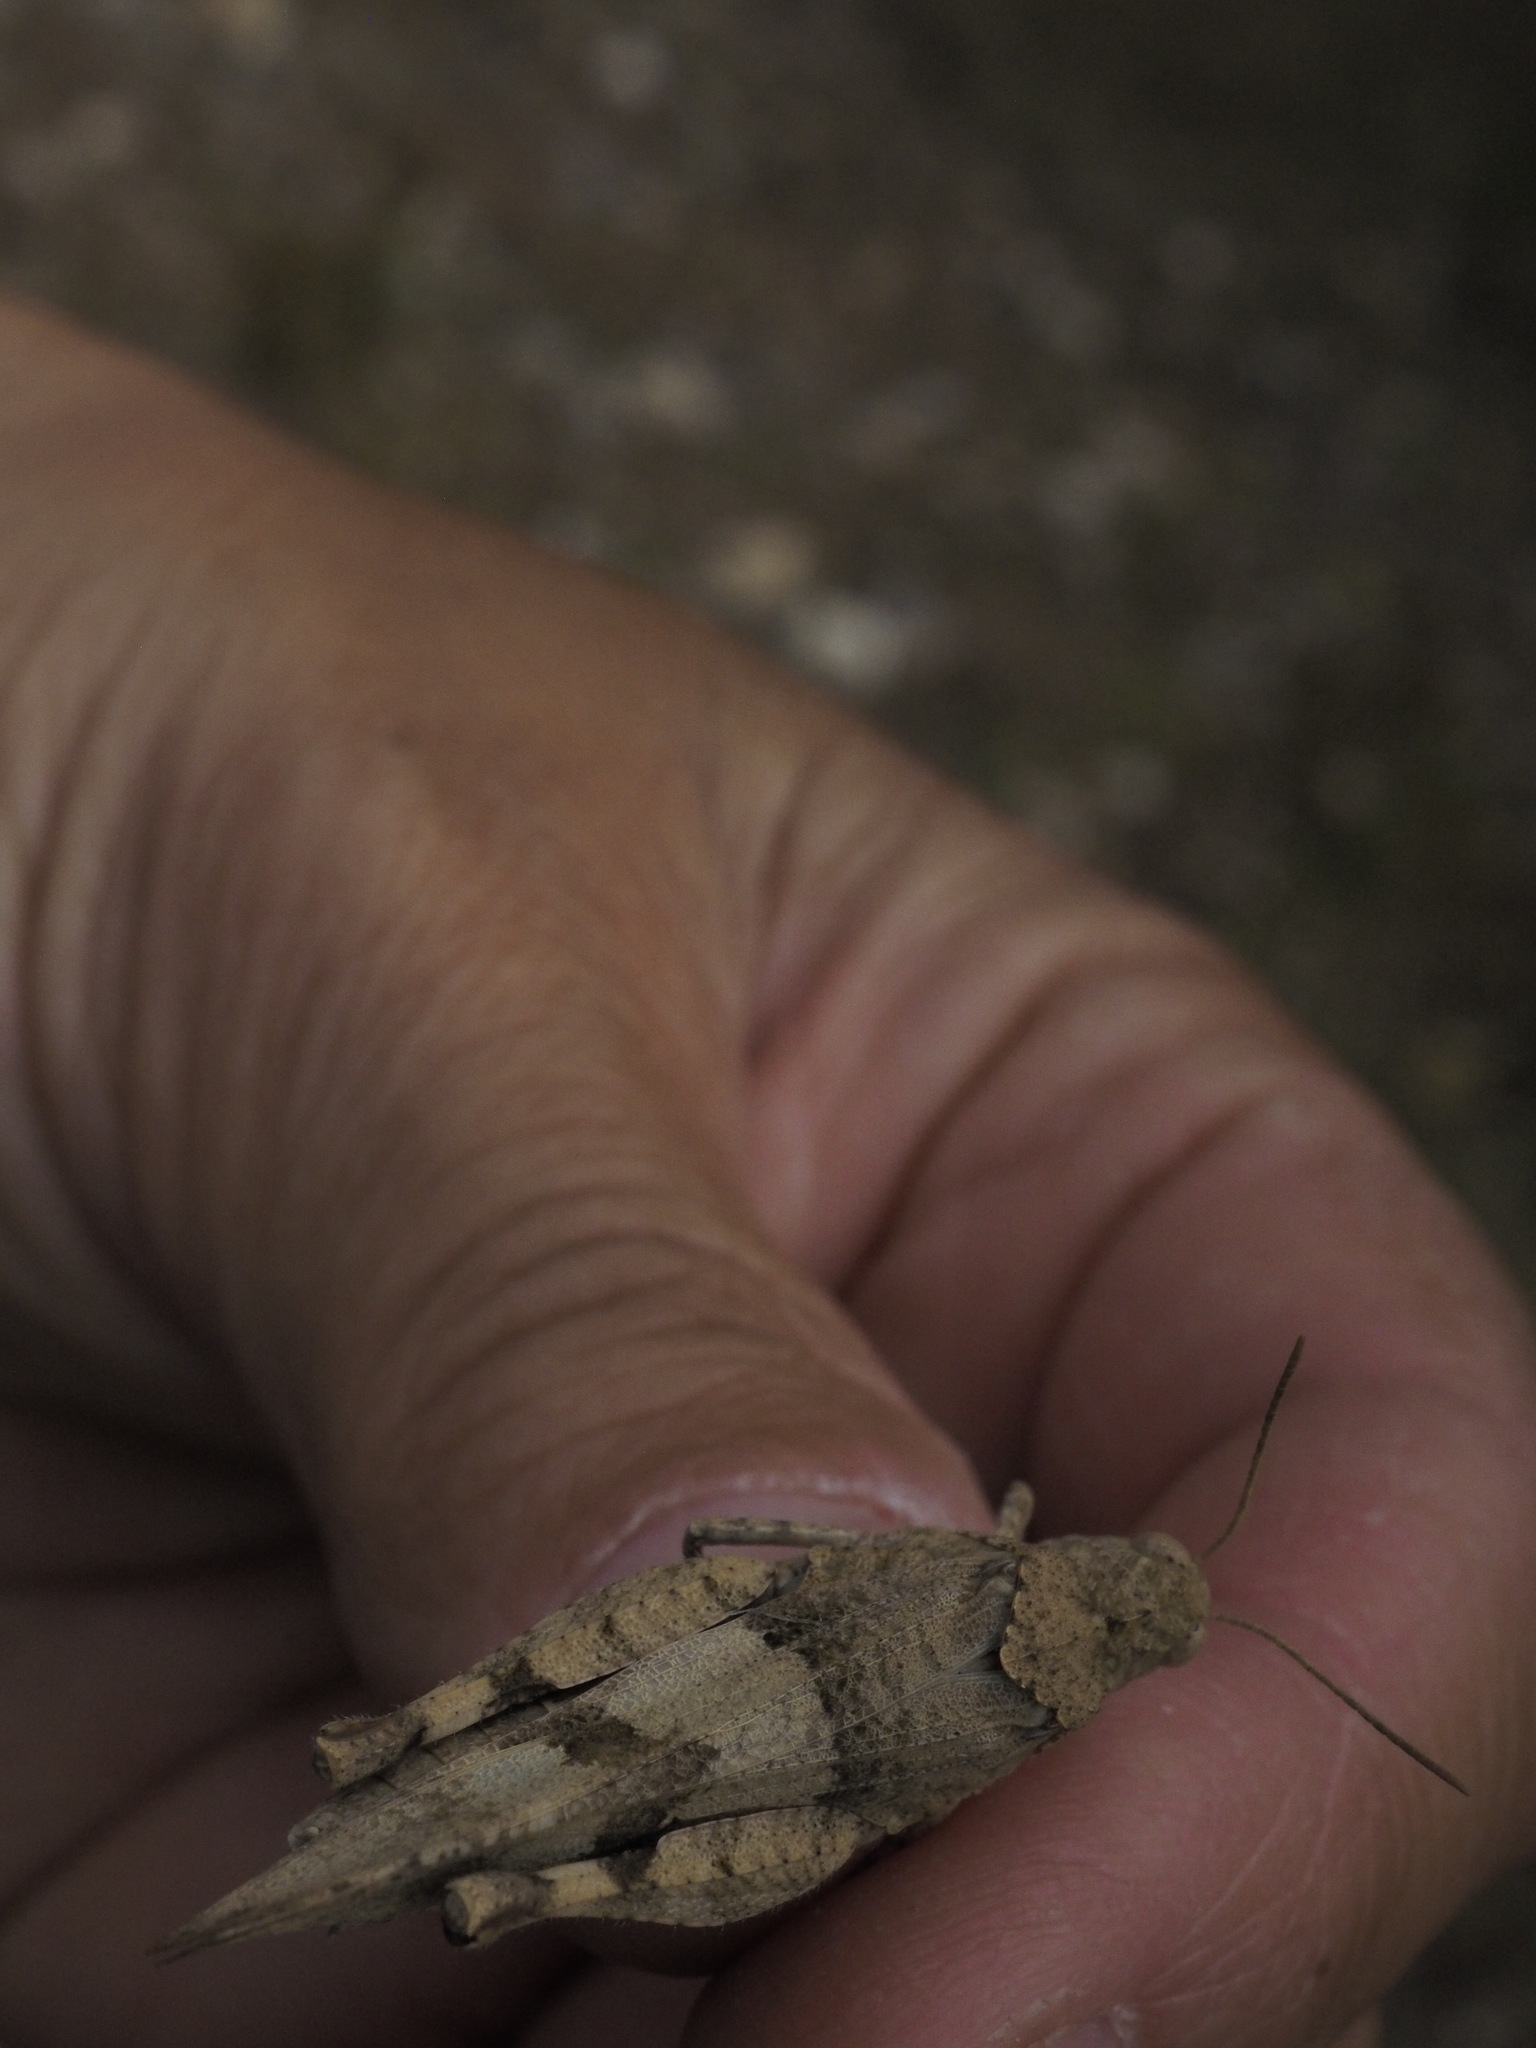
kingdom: Animalia
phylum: Arthropoda
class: Insecta
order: Orthoptera
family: Acrididae
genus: Oedipoda
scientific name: Oedipoda caerulescens
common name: Blue-winged grasshopper
